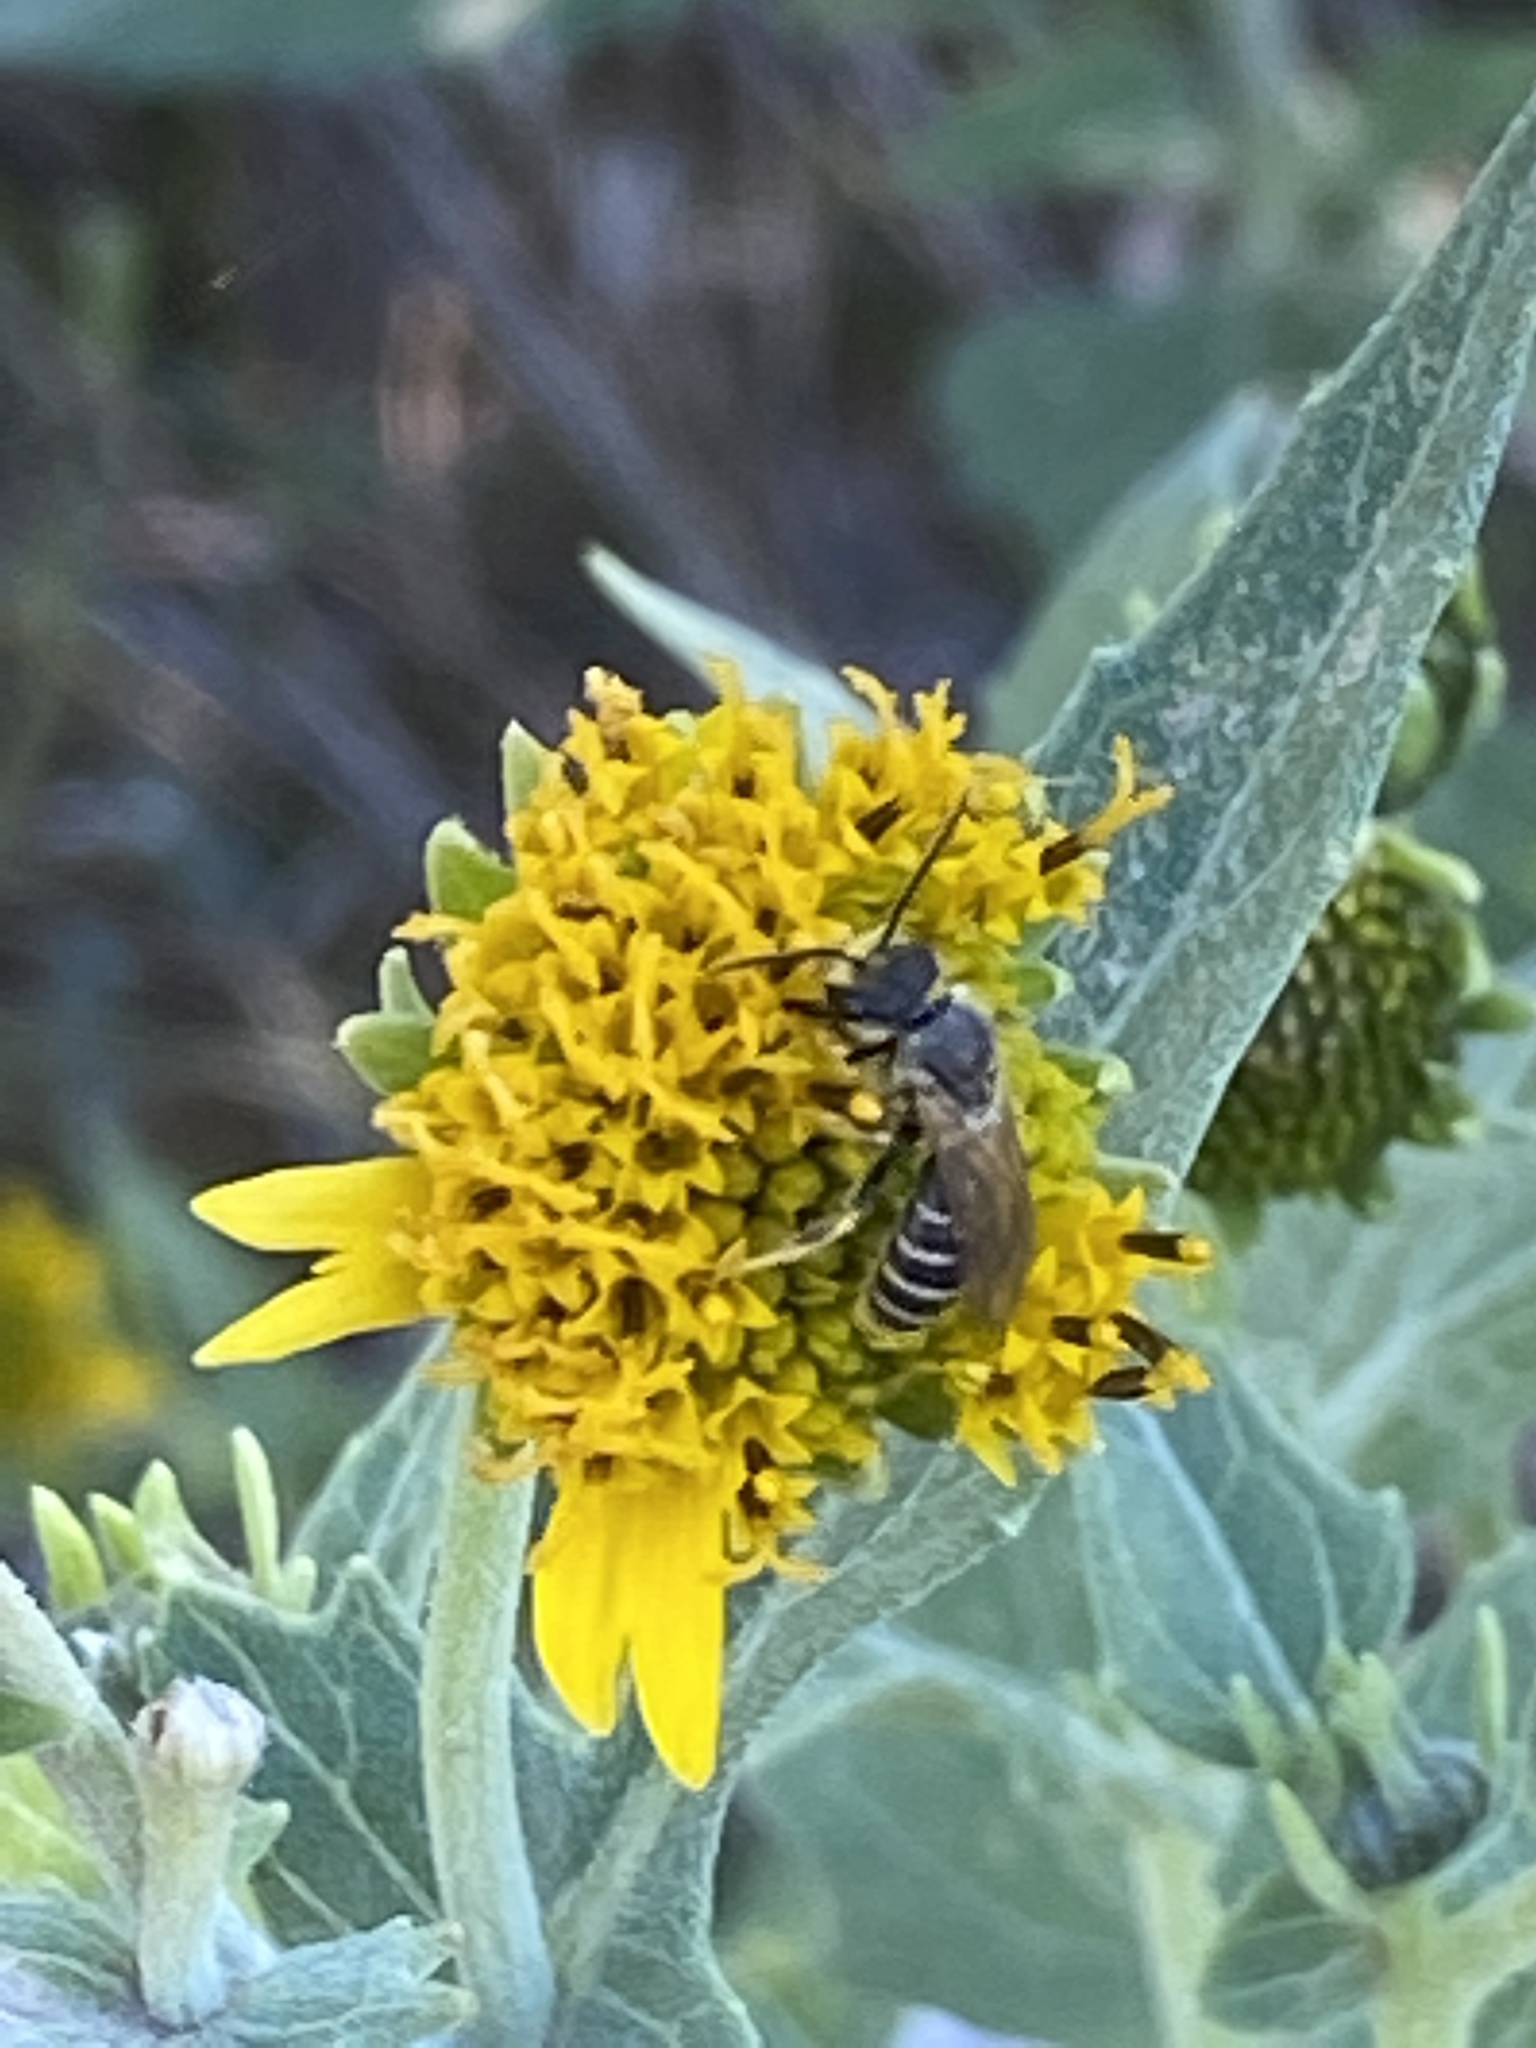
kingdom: Animalia
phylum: Arthropoda
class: Insecta
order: Hymenoptera
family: Halictidae
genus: Halictus
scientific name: Halictus ligatus
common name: Ligated furrow bee
